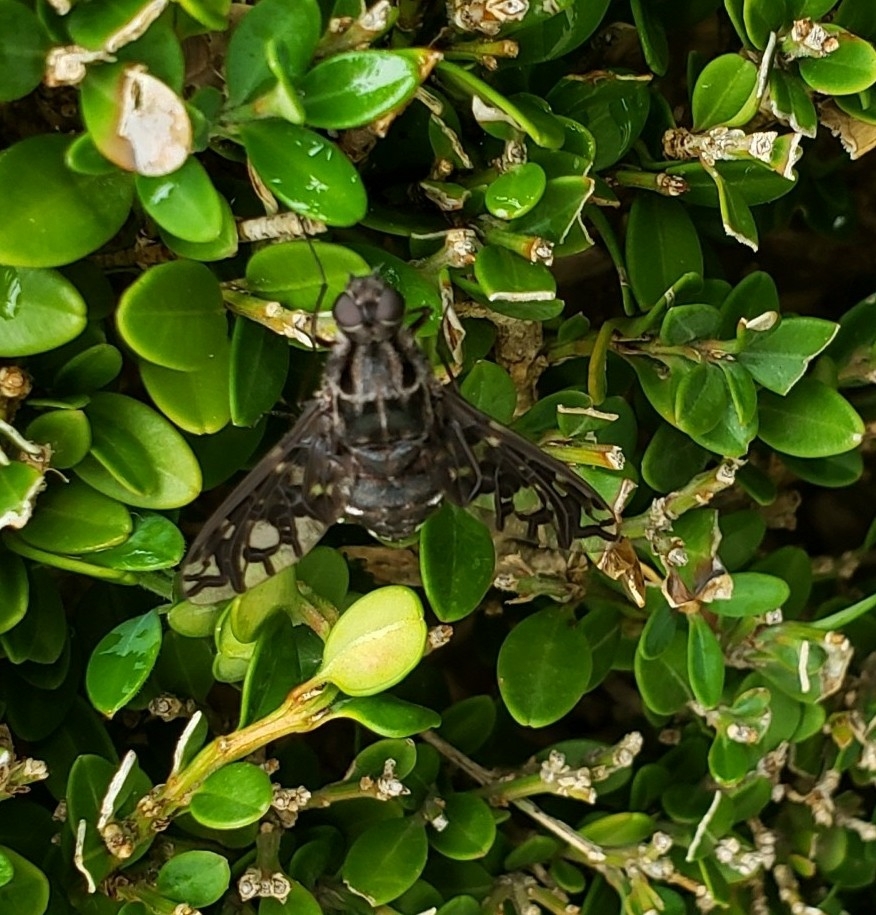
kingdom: Animalia
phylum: Arthropoda
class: Insecta
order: Diptera
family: Bombyliidae
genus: Xenox
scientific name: Xenox tigrinus
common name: Tiger bee fly
